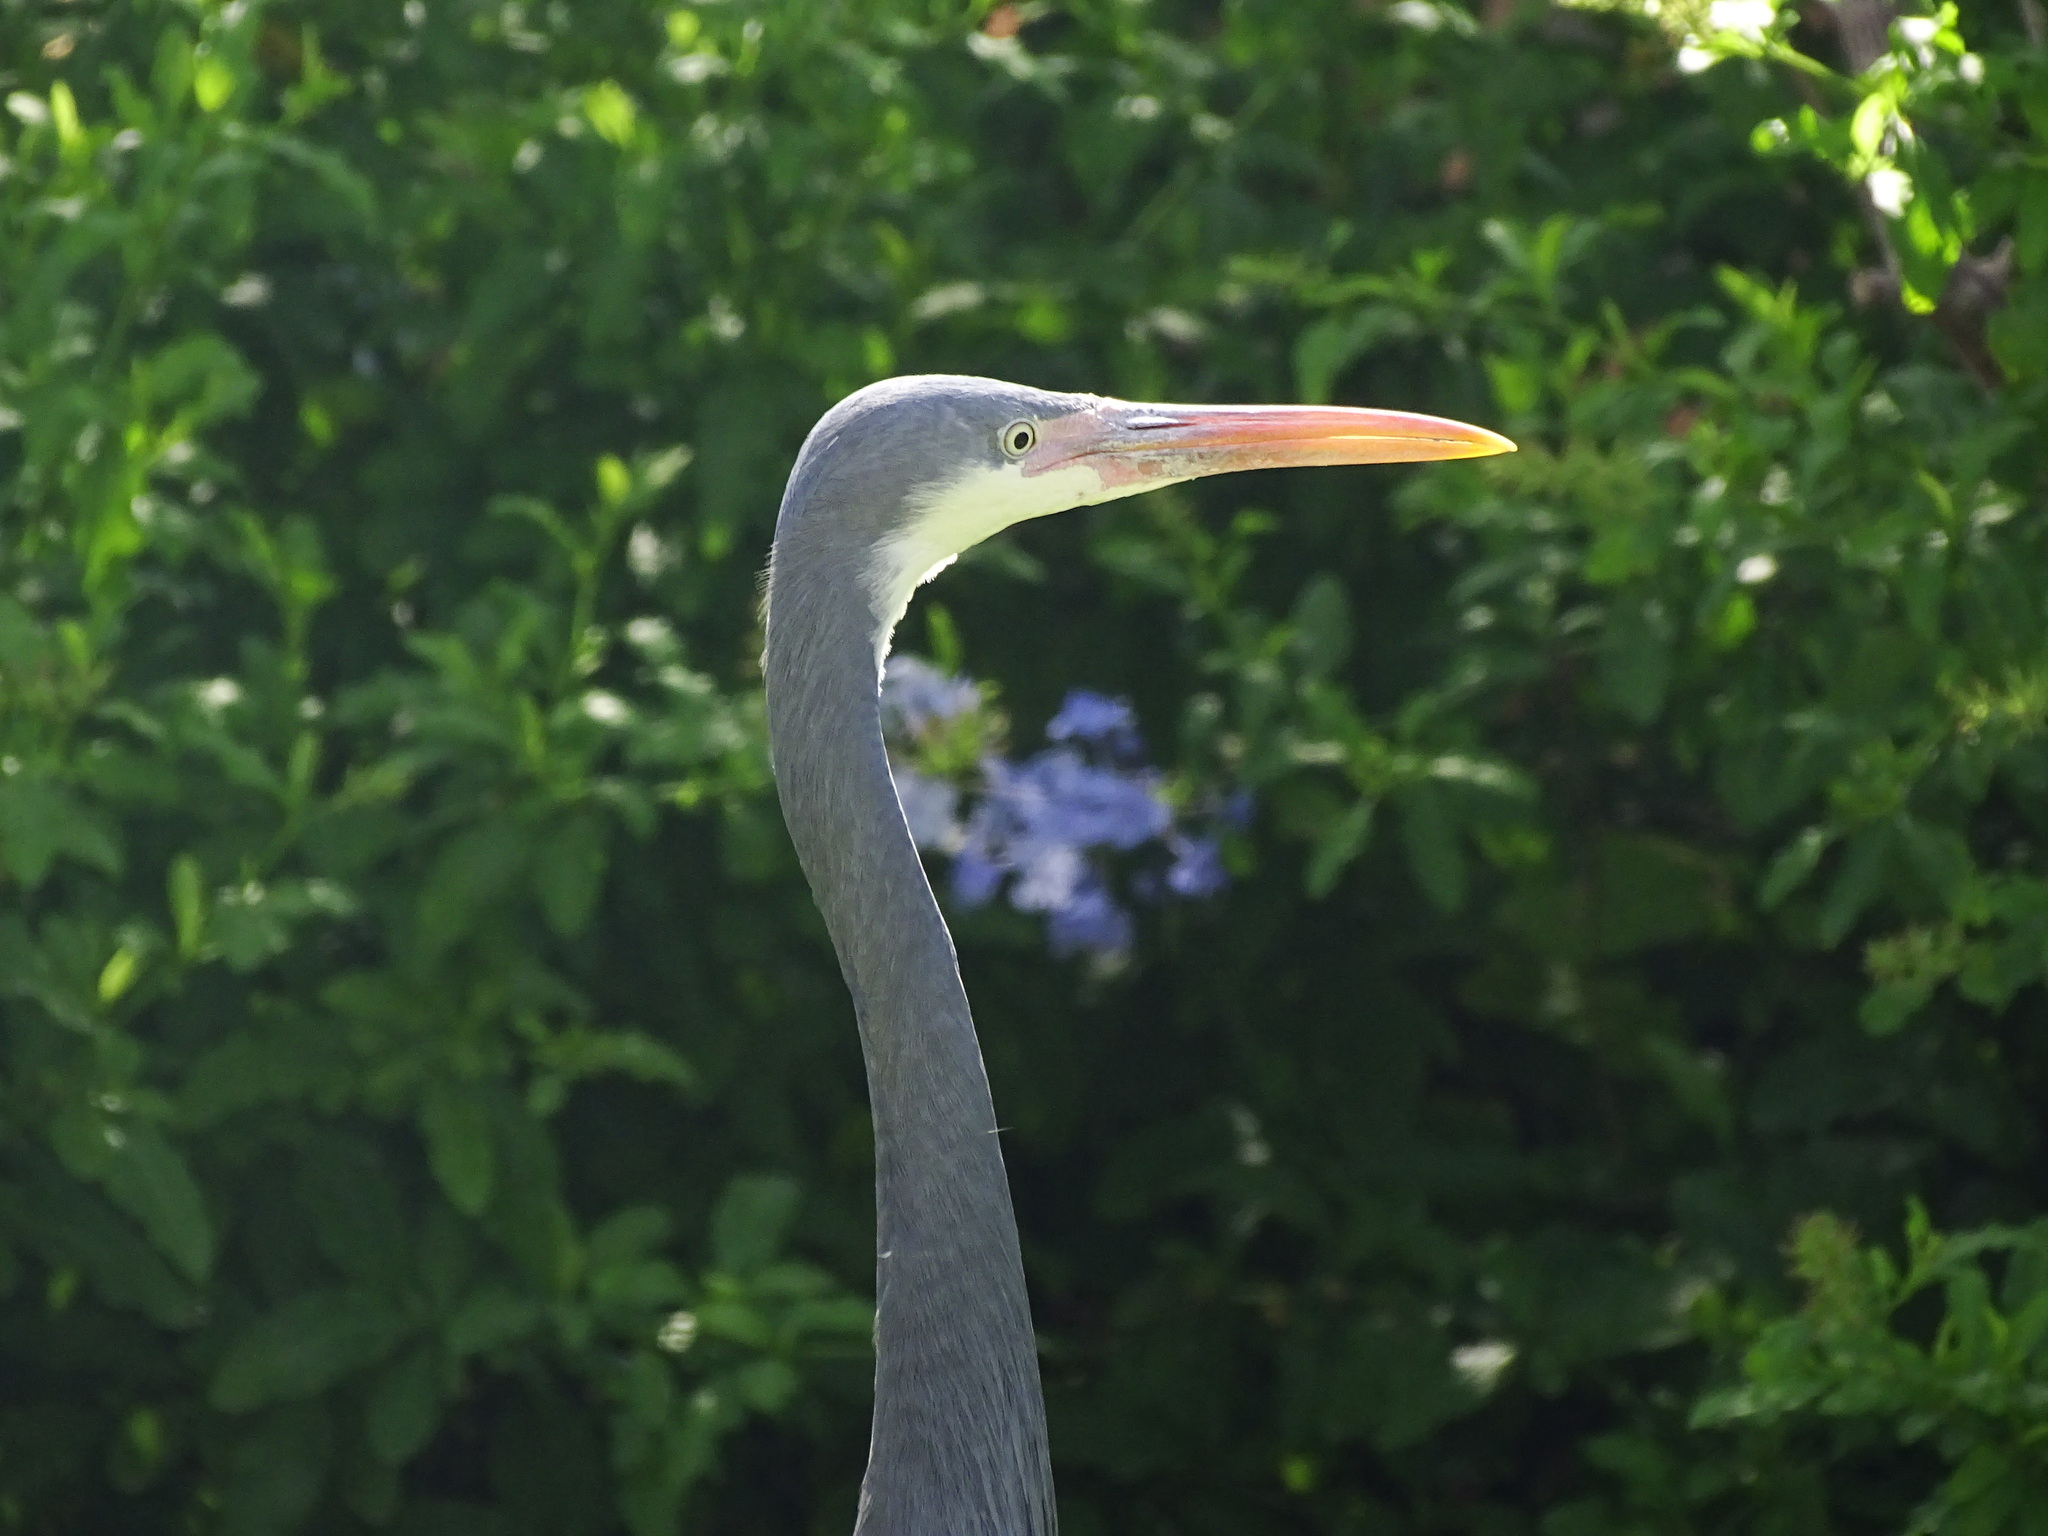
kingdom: Animalia
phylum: Chordata
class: Aves
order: Pelecaniformes
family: Ardeidae
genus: Egretta
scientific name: Egretta gularis
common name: Western reef-heron
